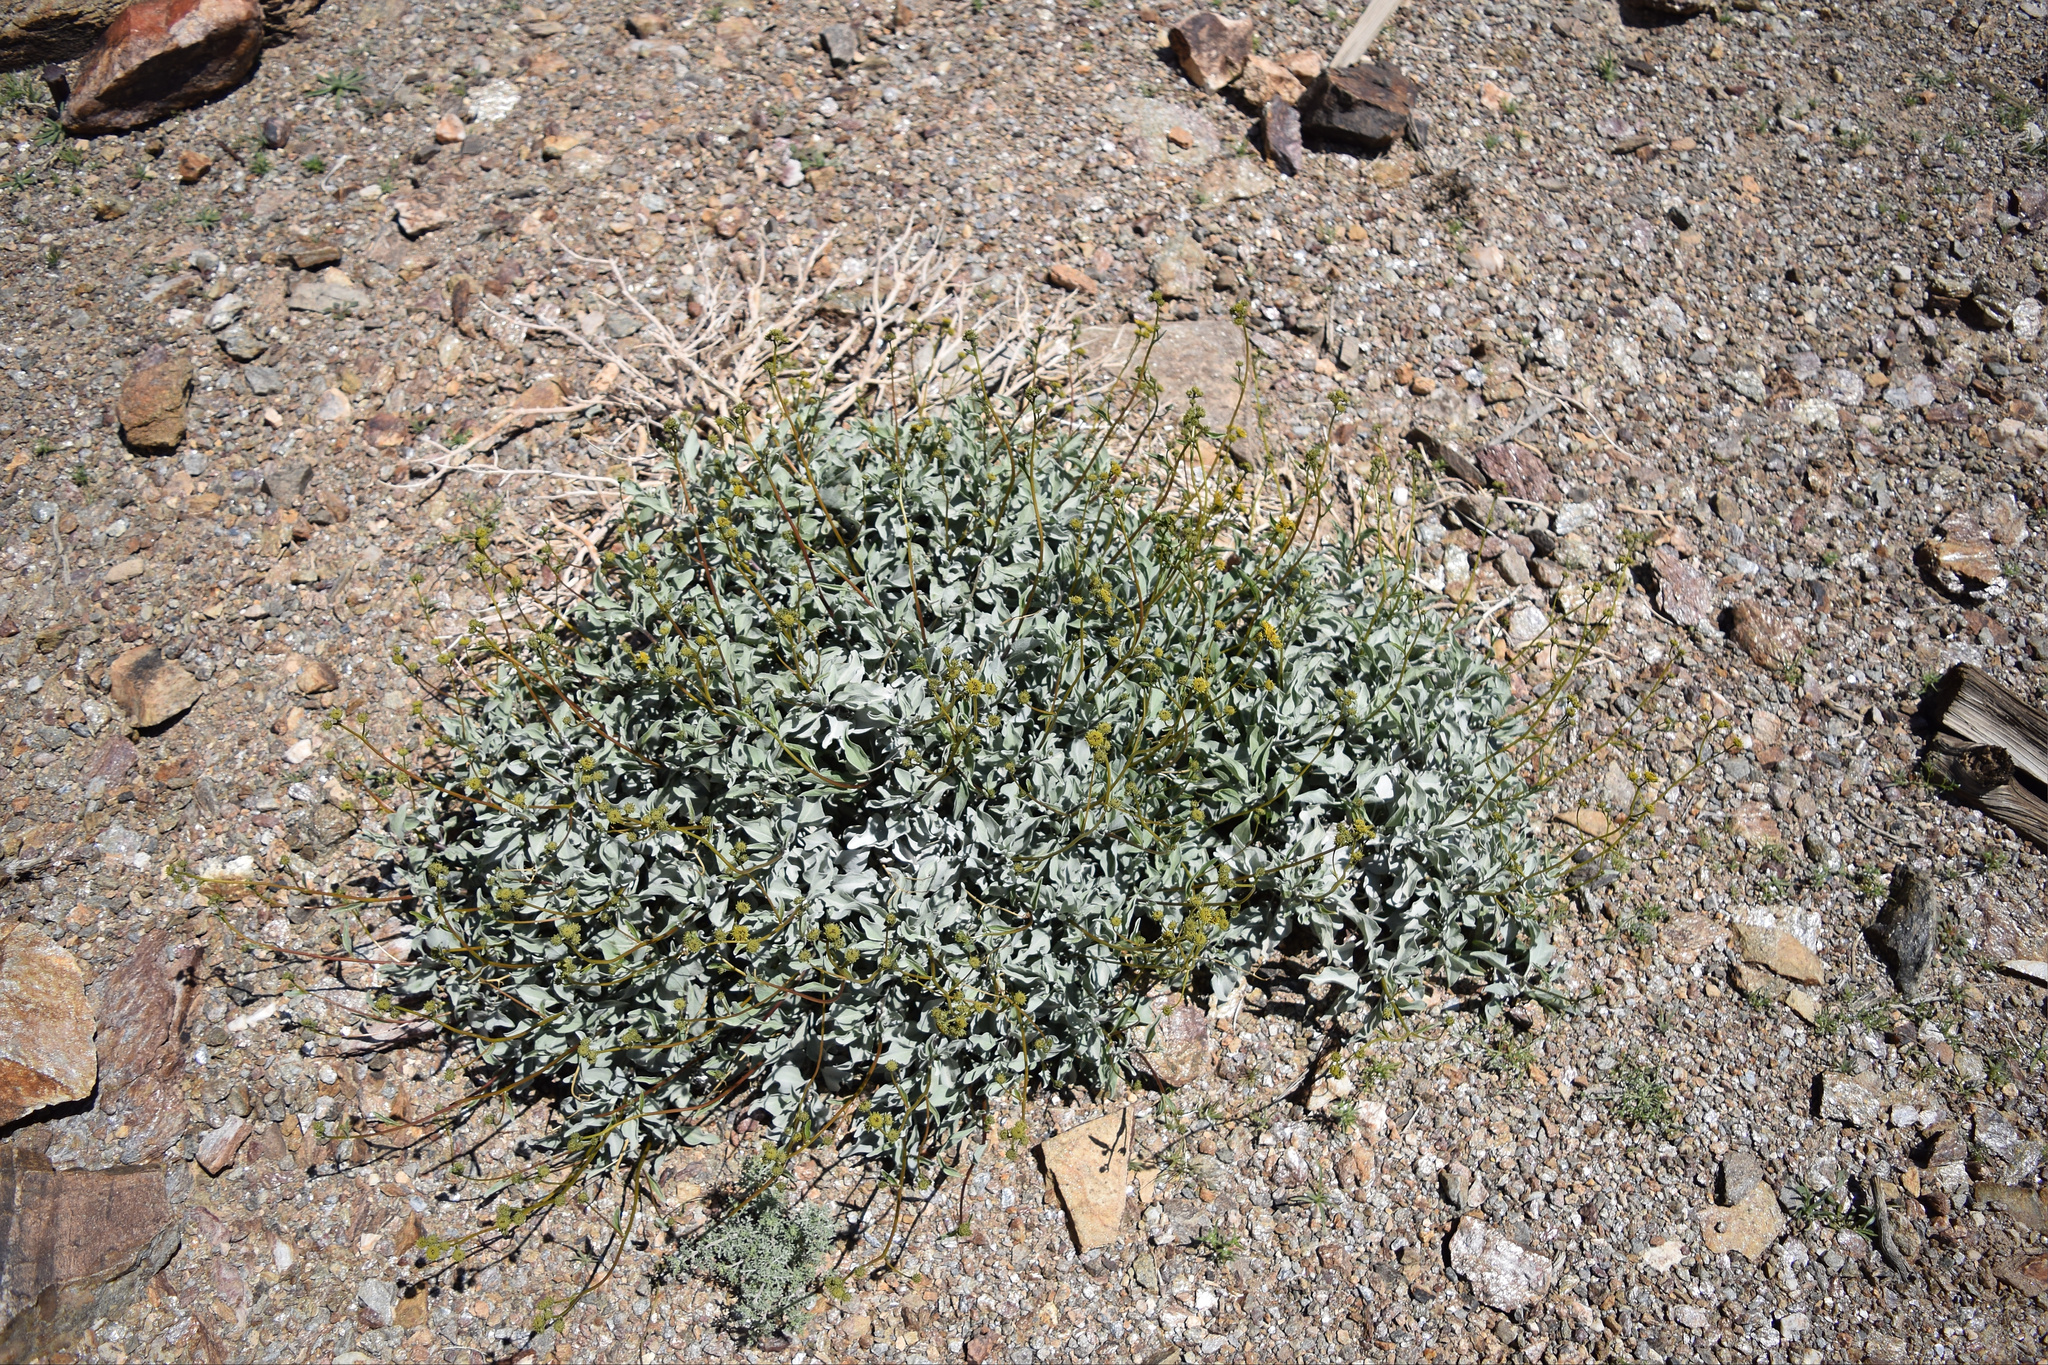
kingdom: Plantae
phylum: Tracheophyta
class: Magnoliopsida
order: Asterales
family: Asteraceae
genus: Encelia
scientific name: Encelia farinosa
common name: Brittlebush
